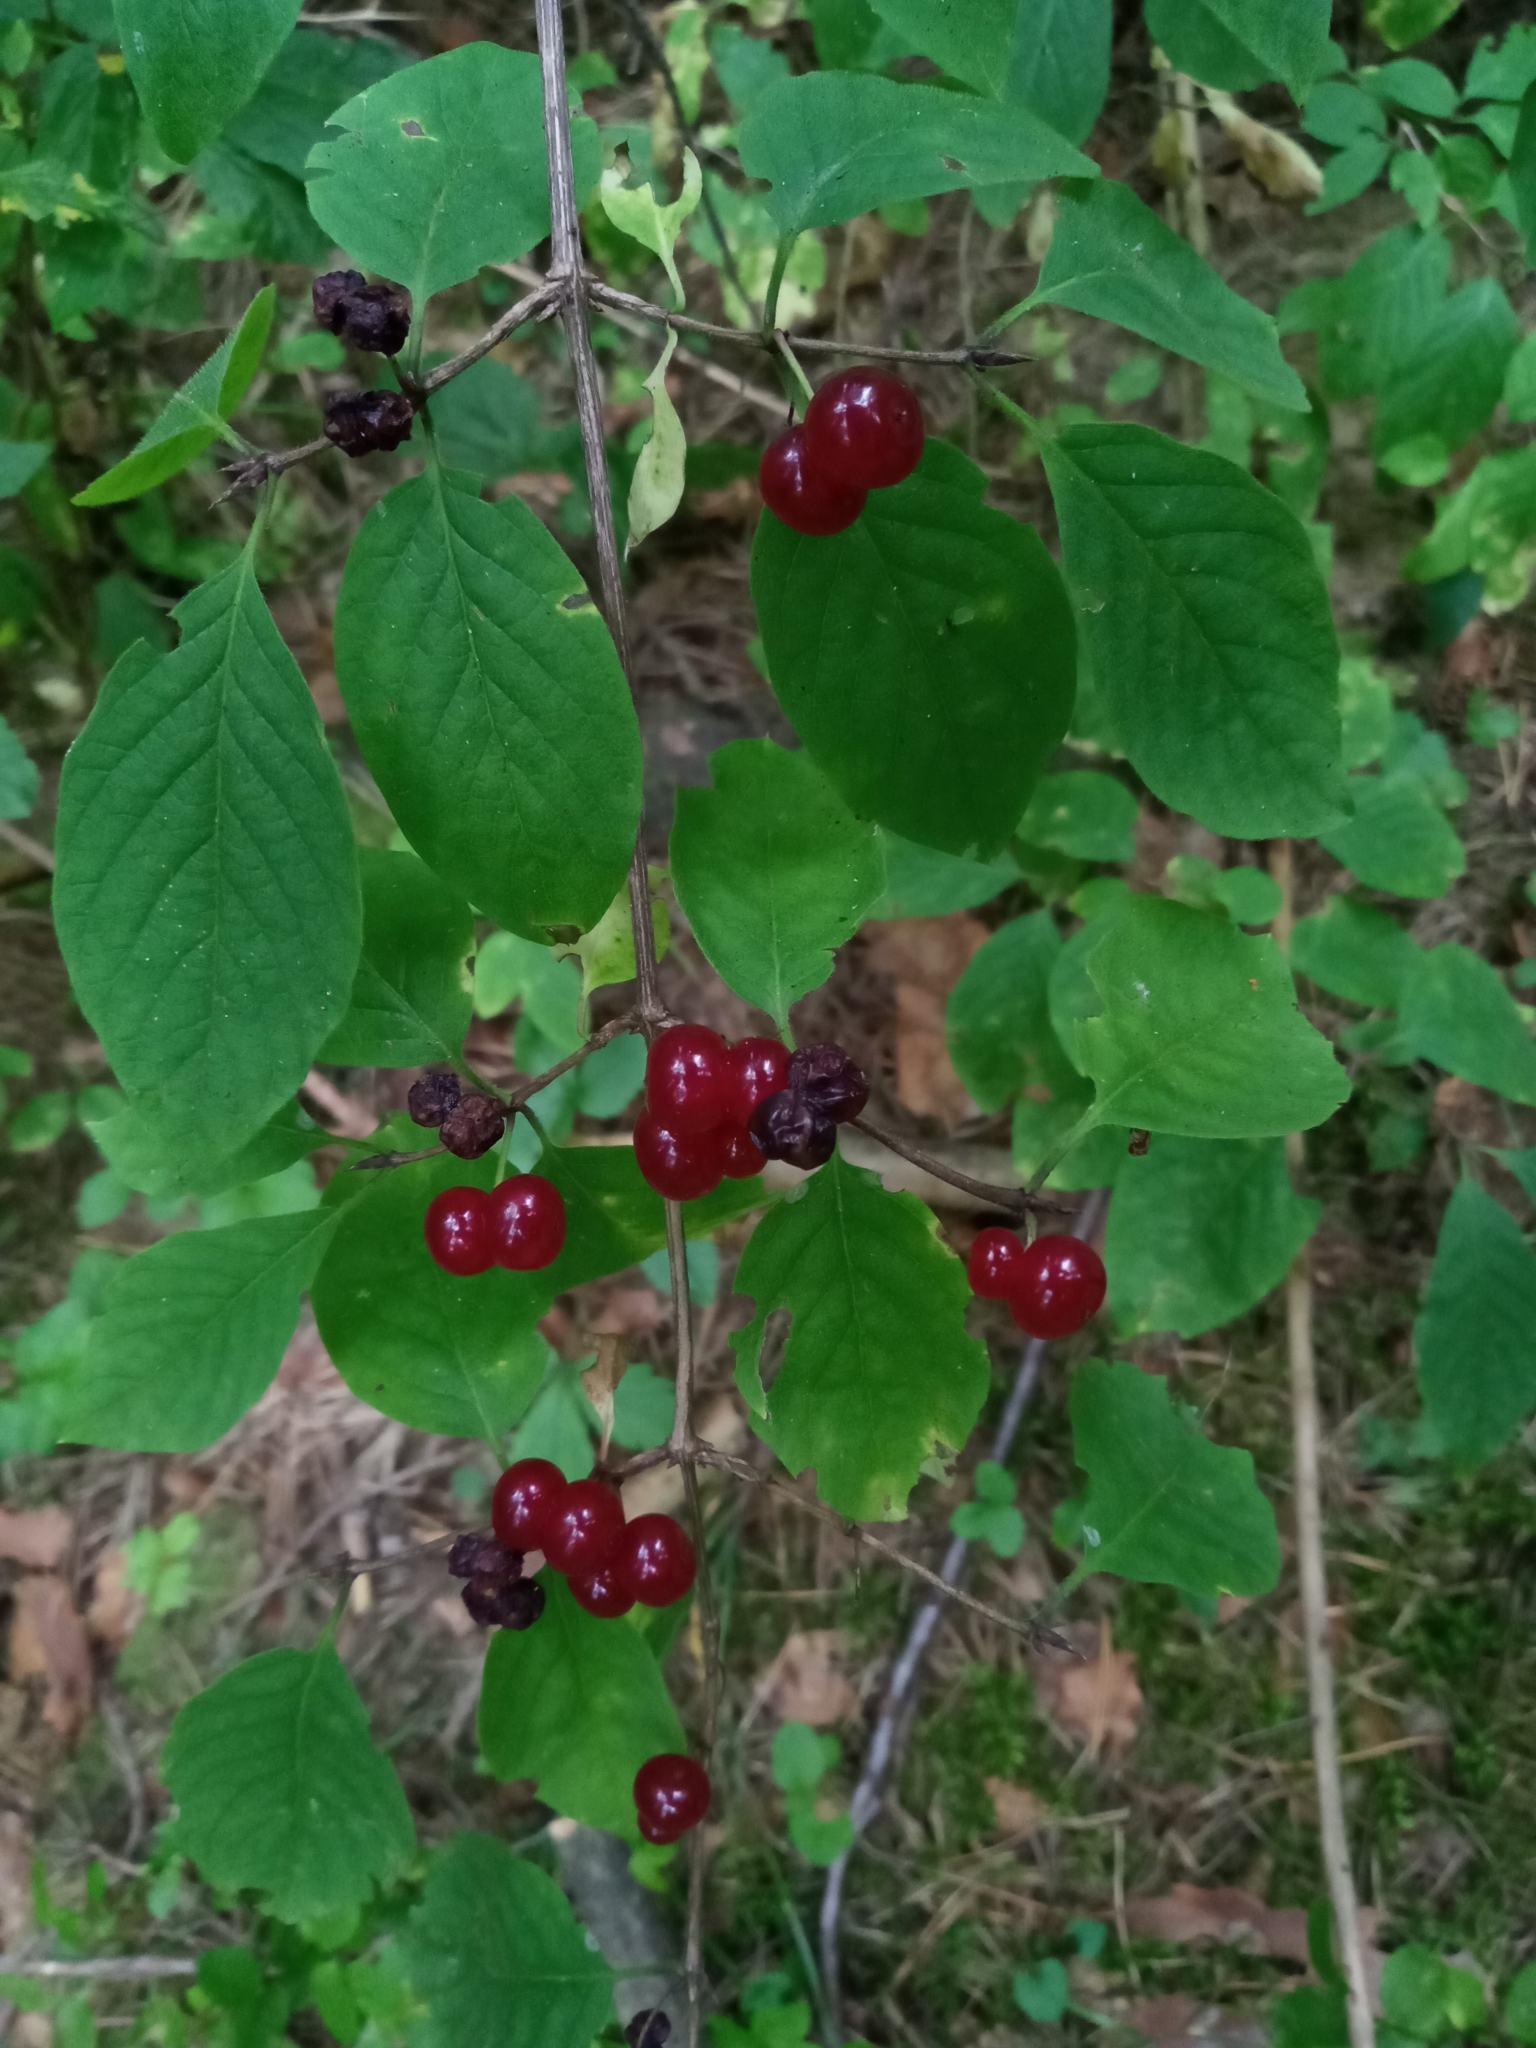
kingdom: Plantae
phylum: Tracheophyta
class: Magnoliopsida
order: Dipsacales
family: Caprifoliaceae
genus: Lonicera
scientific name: Lonicera xylosteum
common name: Fly honeysuckle
